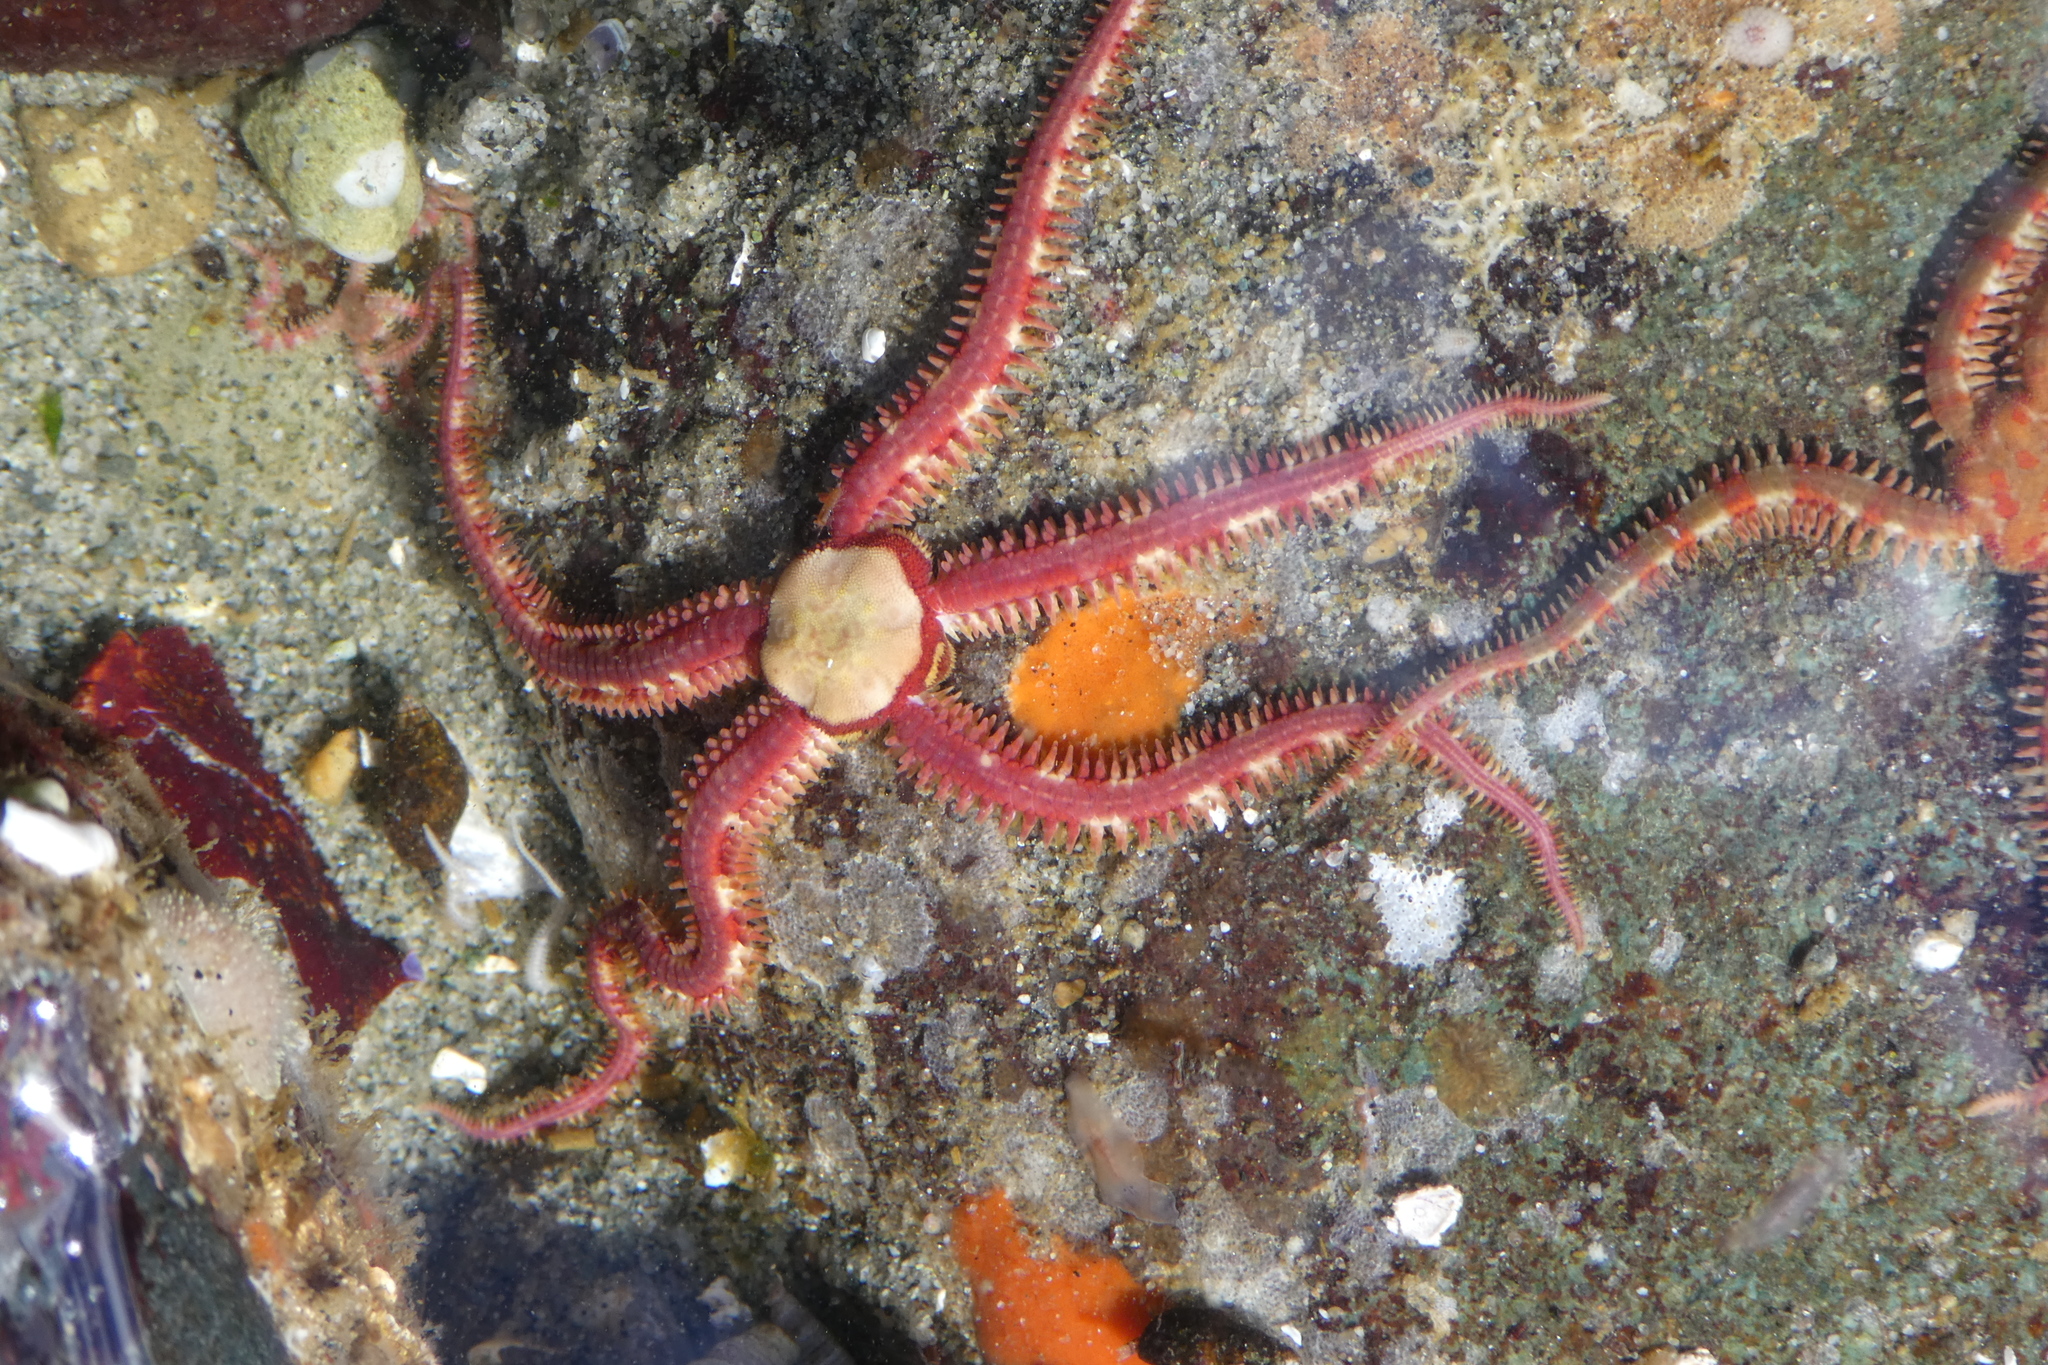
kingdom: Animalia
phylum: Echinodermata
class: Ophiuroidea
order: Amphilepidida
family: Ophiopholidae
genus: Ophiopholis
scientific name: Ophiopholis aculeata
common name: Crevice brittlestar
